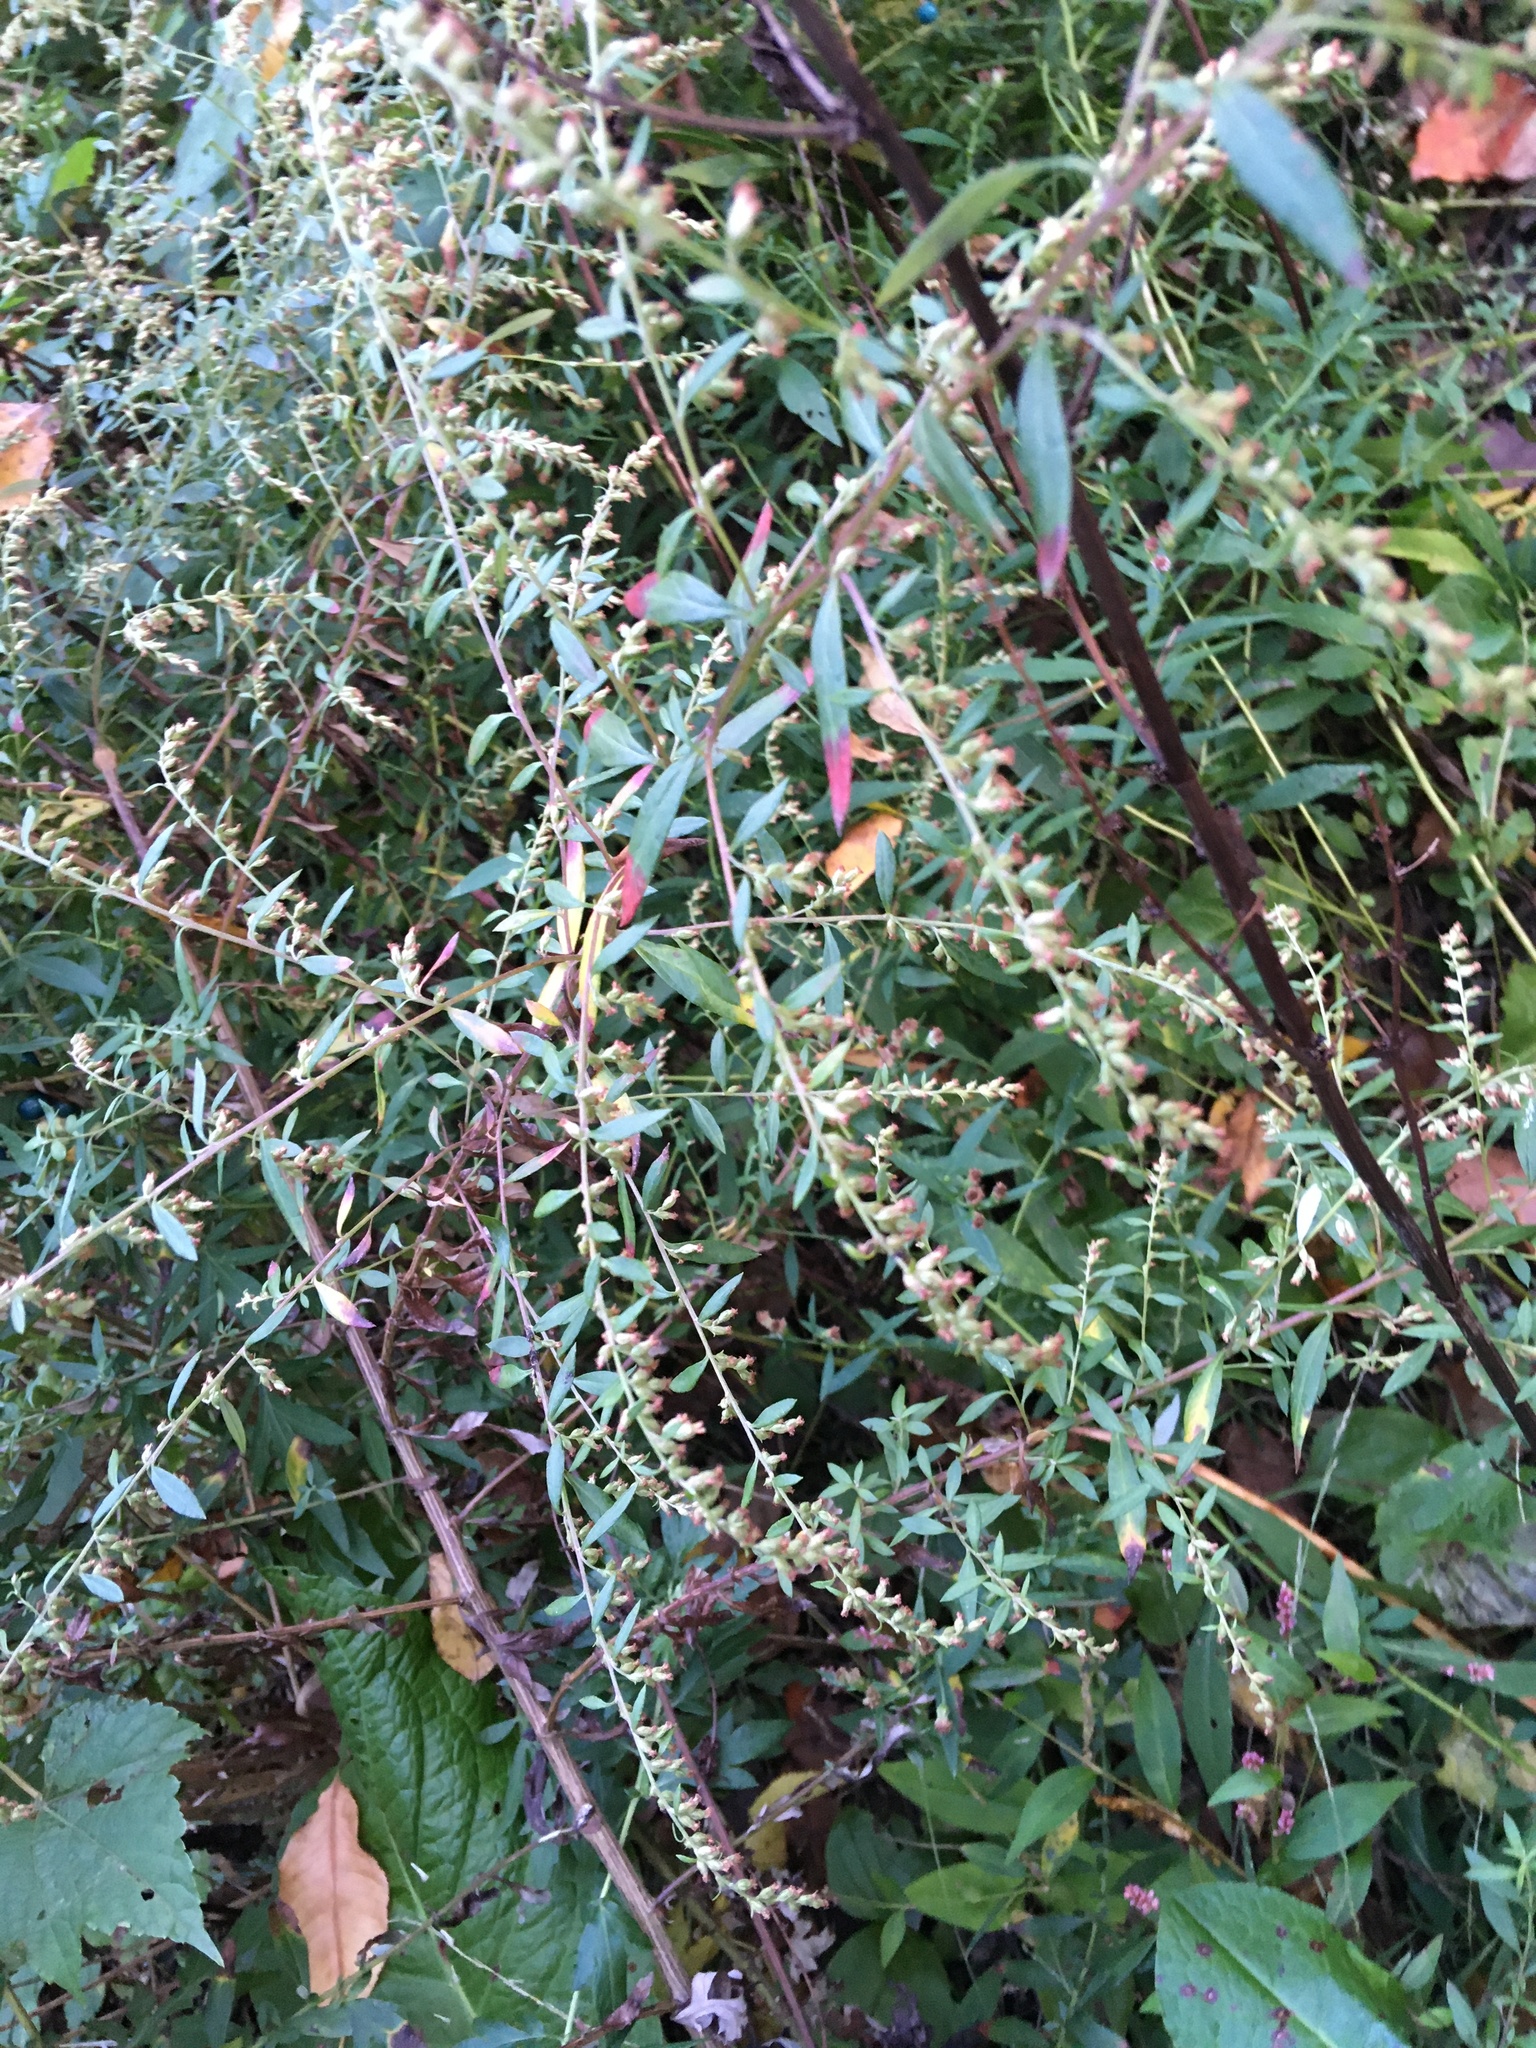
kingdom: Plantae
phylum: Tracheophyta
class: Magnoliopsida
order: Asterales
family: Asteraceae
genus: Artemisia
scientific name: Artemisia vulgaris
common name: Mugwort
